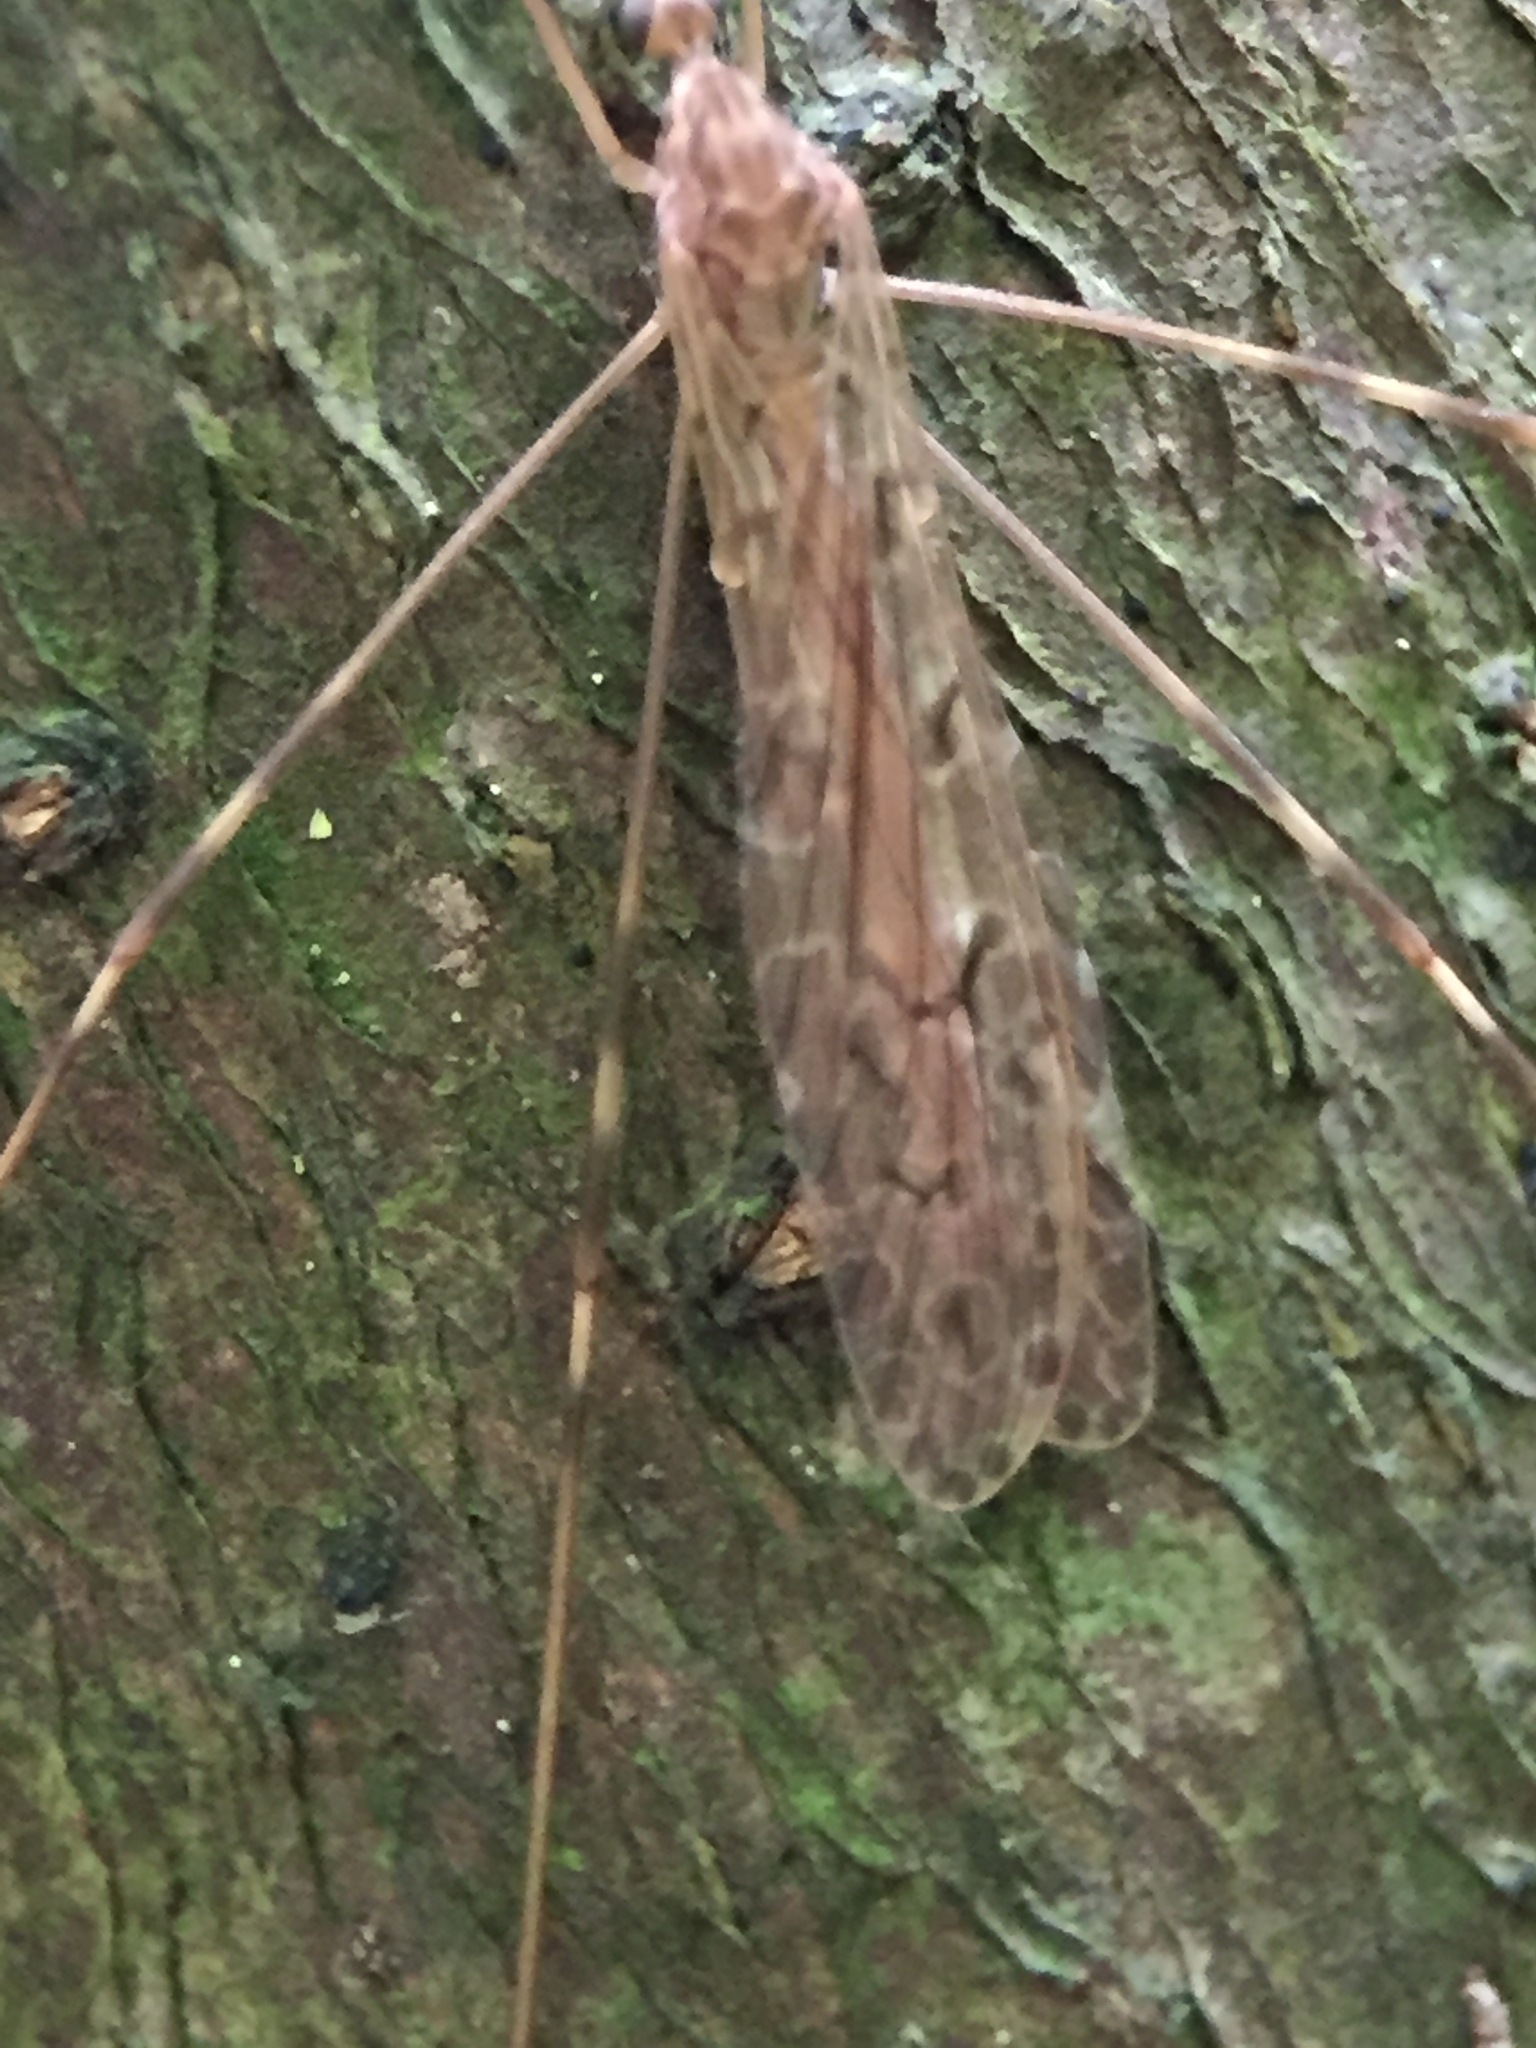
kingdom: Animalia
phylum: Arthropoda
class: Insecta
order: Diptera
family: Limoniidae
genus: Austrolimnophila
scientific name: Austrolimnophila crassipes
